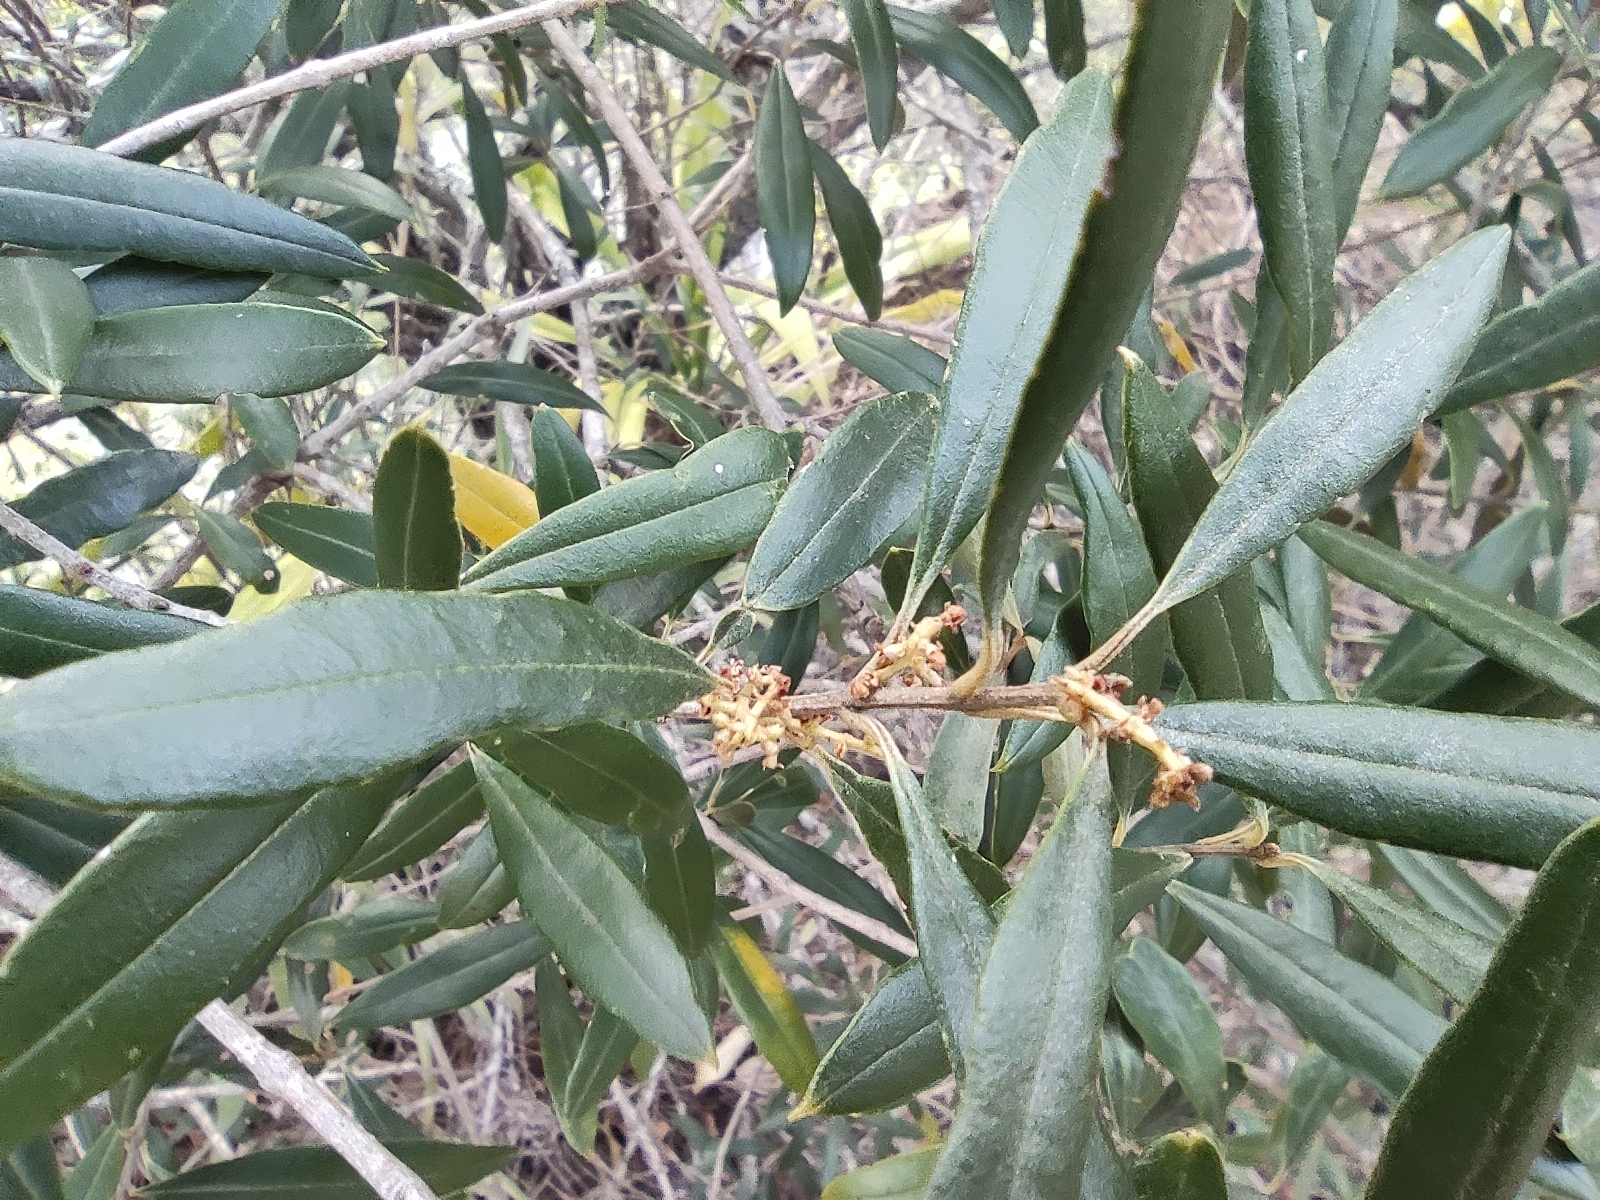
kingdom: Plantae
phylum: Tracheophyta
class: Magnoliopsida
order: Lamiales
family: Oleaceae
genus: Olea
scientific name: Olea europaea
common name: Olive
